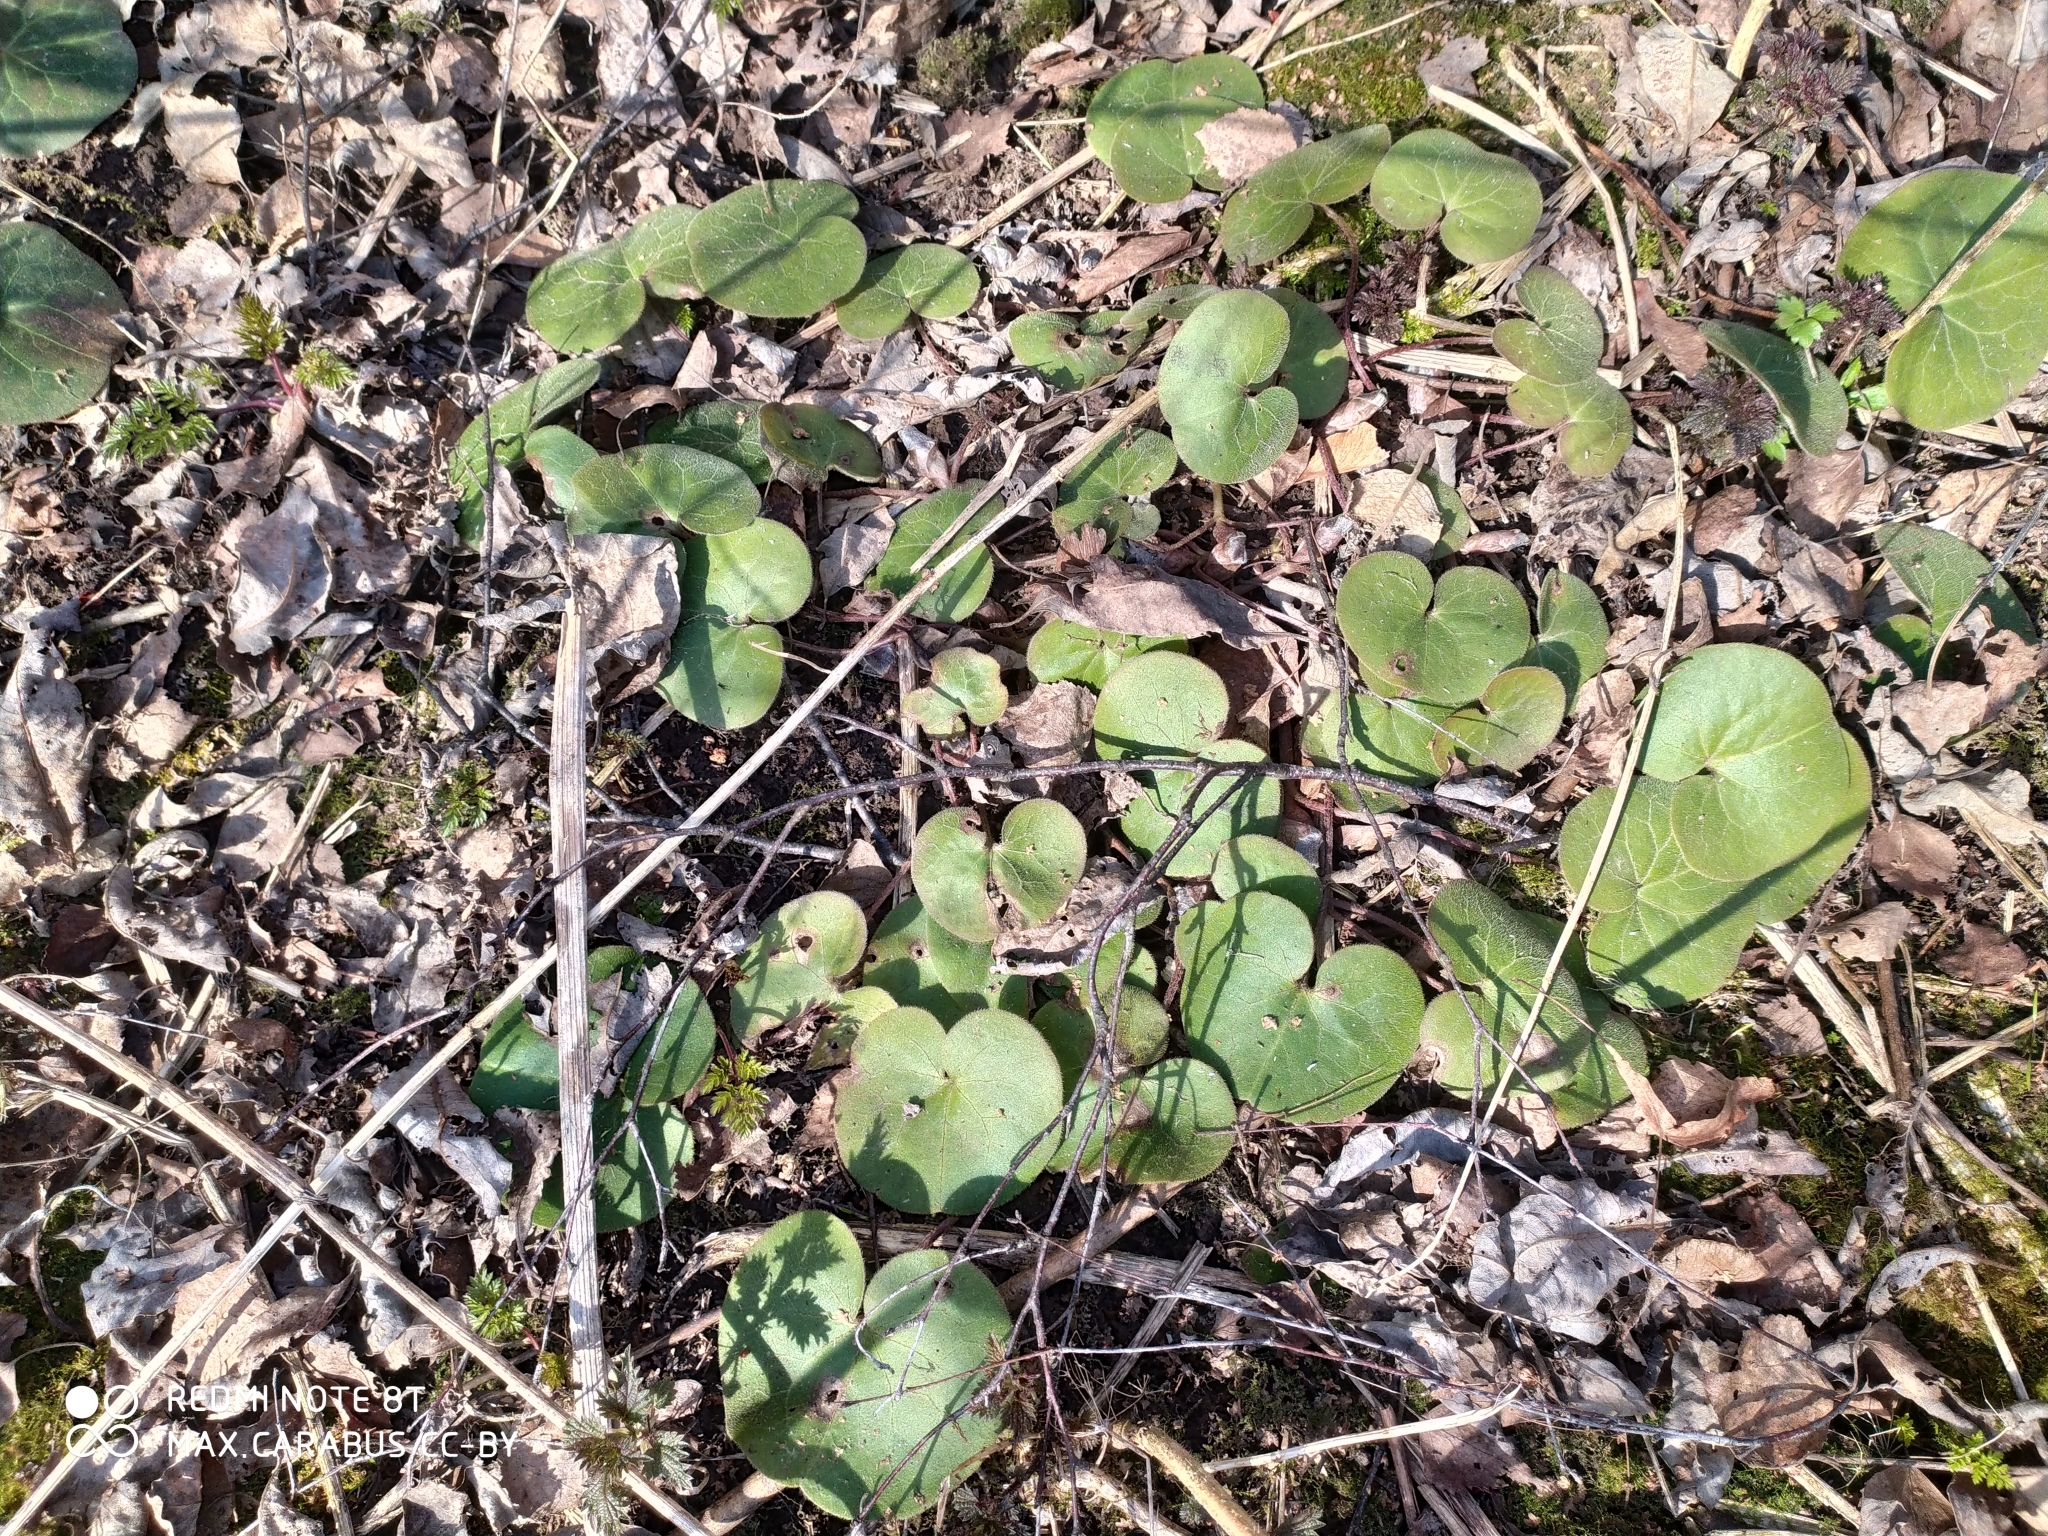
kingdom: Plantae
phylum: Tracheophyta
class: Magnoliopsida
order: Piperales
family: Aristolochiaceae
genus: Asarum
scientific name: Asarum europaeum
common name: Asarabacca
